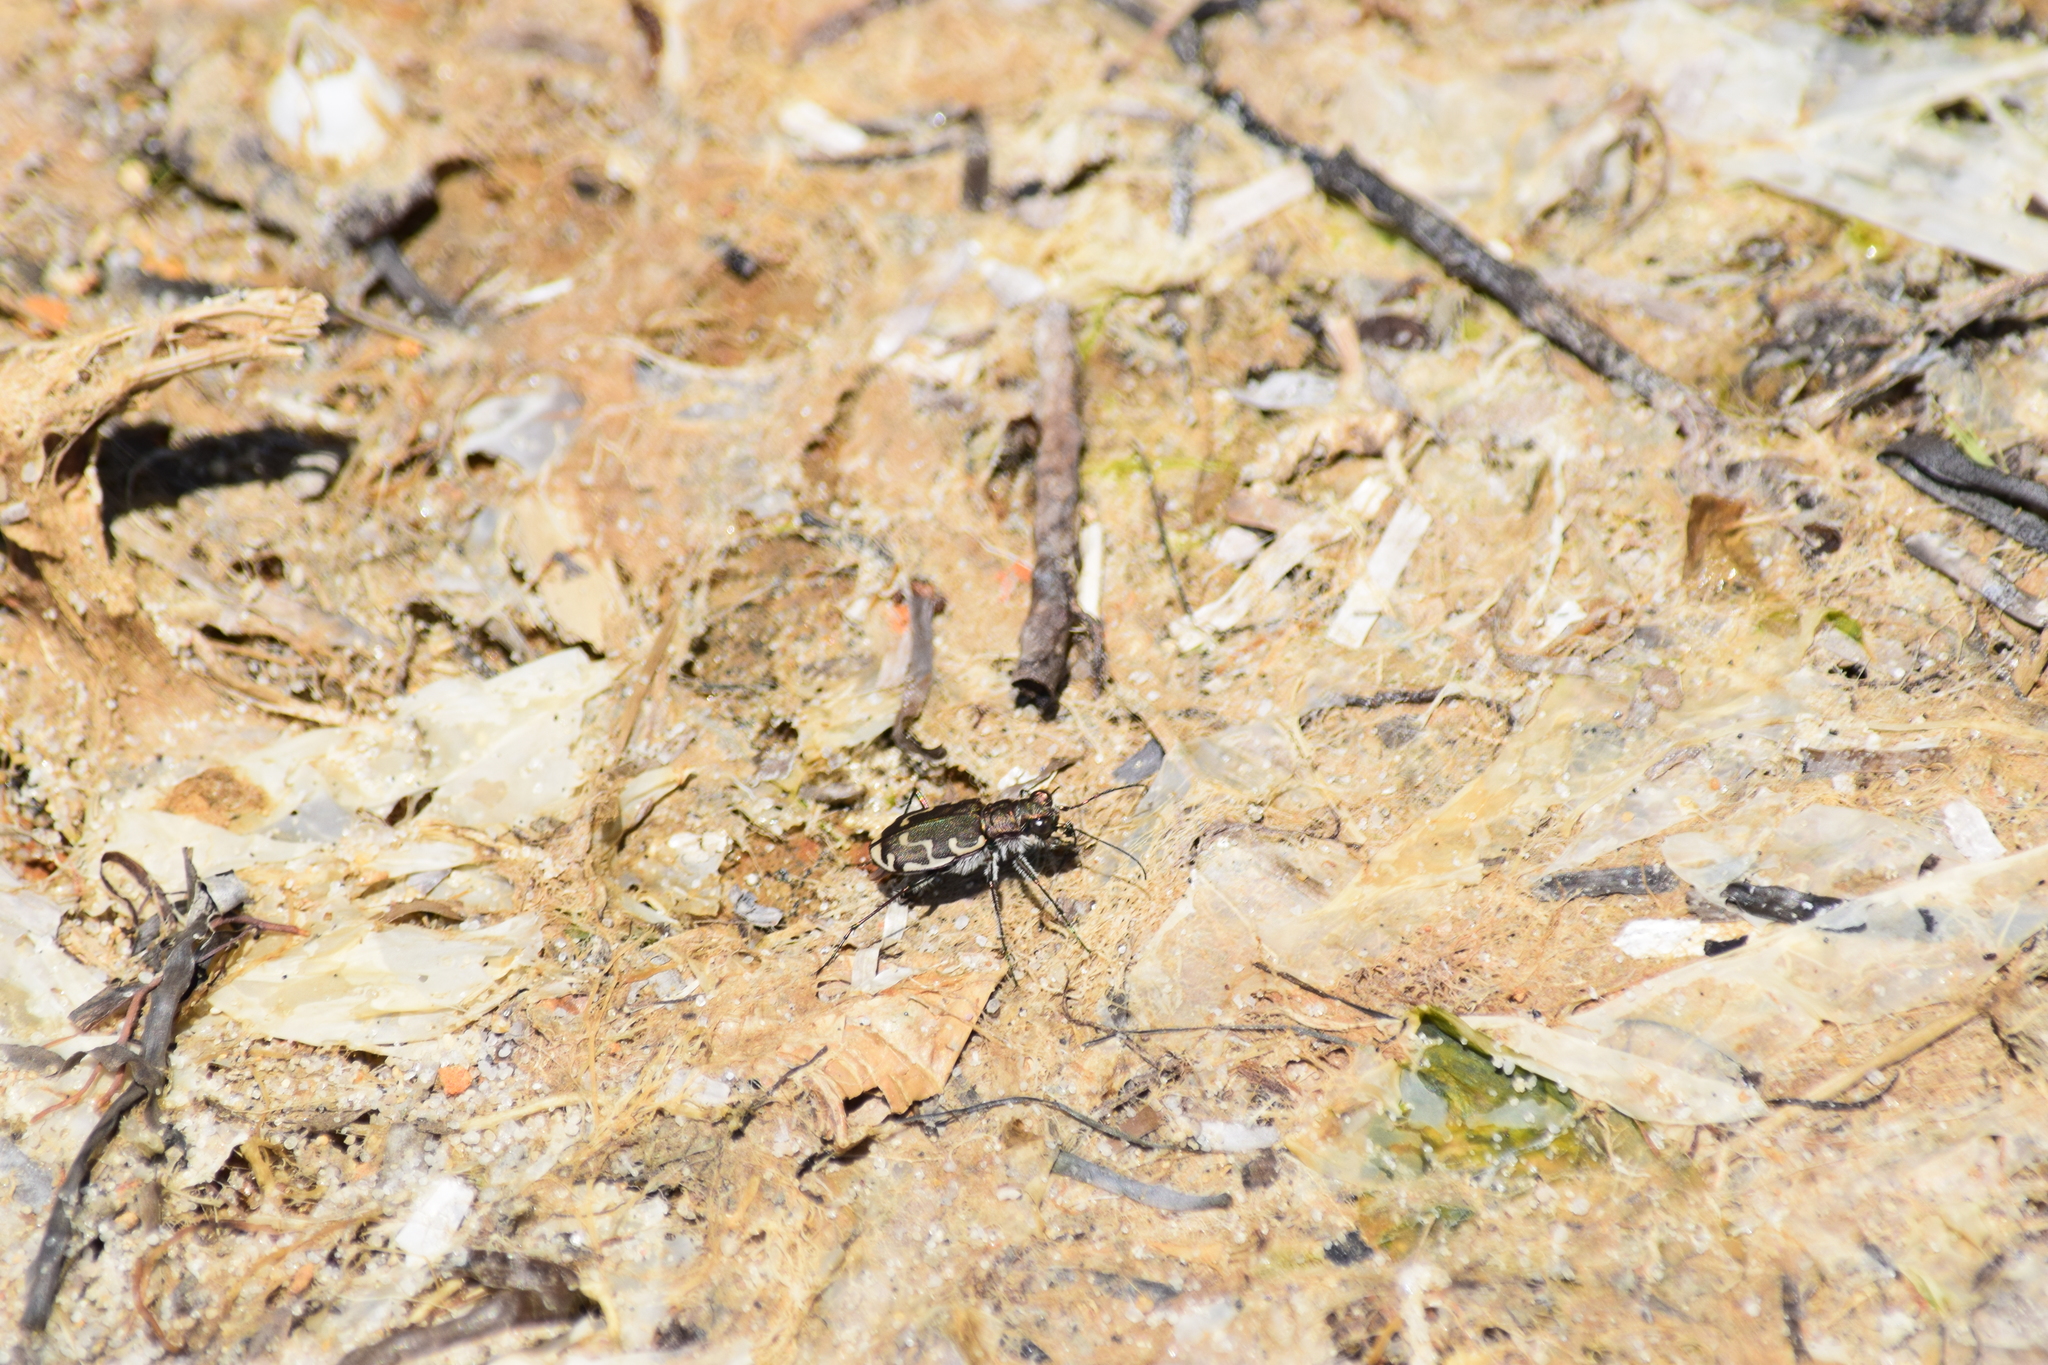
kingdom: Animalia
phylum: Arthropoda
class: Insecta
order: Coleoptera
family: Carabidae
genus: Cicindela
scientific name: Cicindela repanda
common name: Bronzed tiger beetle
